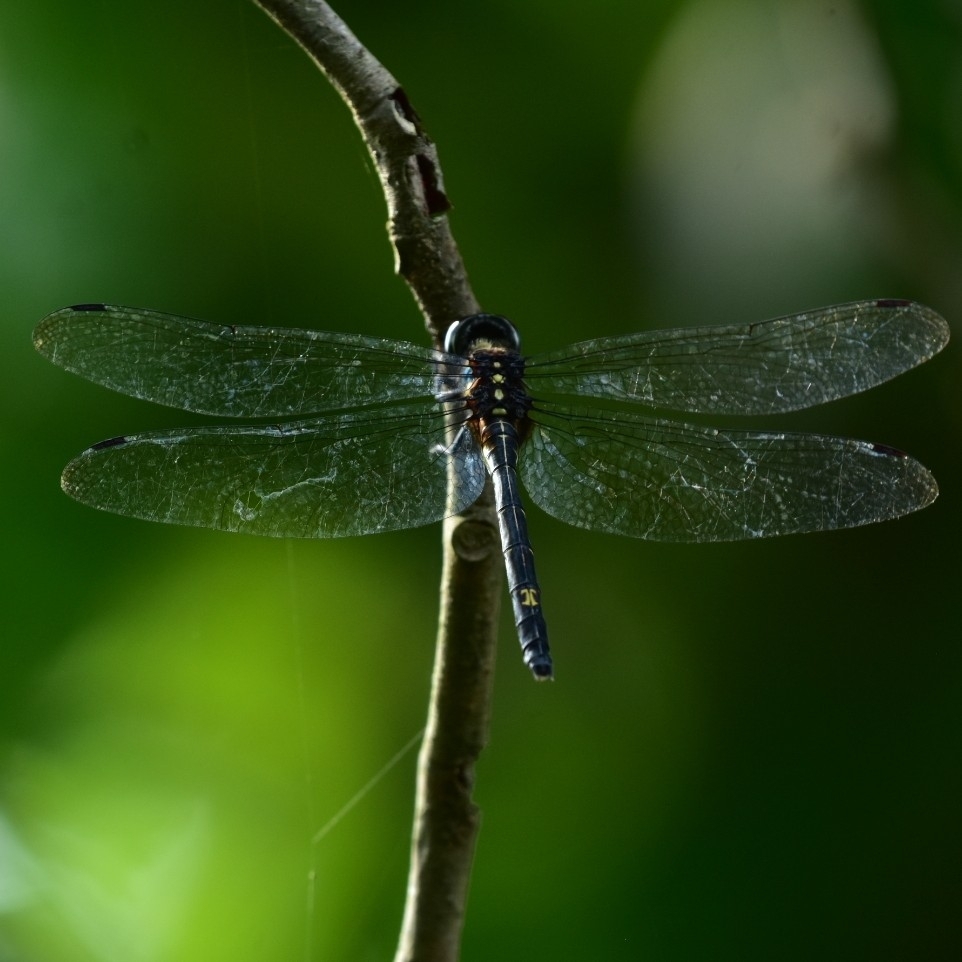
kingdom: Animalia
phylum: Arthropoda
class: Insecta
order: Odonata
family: Libellulidae
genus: Zygonyx
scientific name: Zygonyx iris
